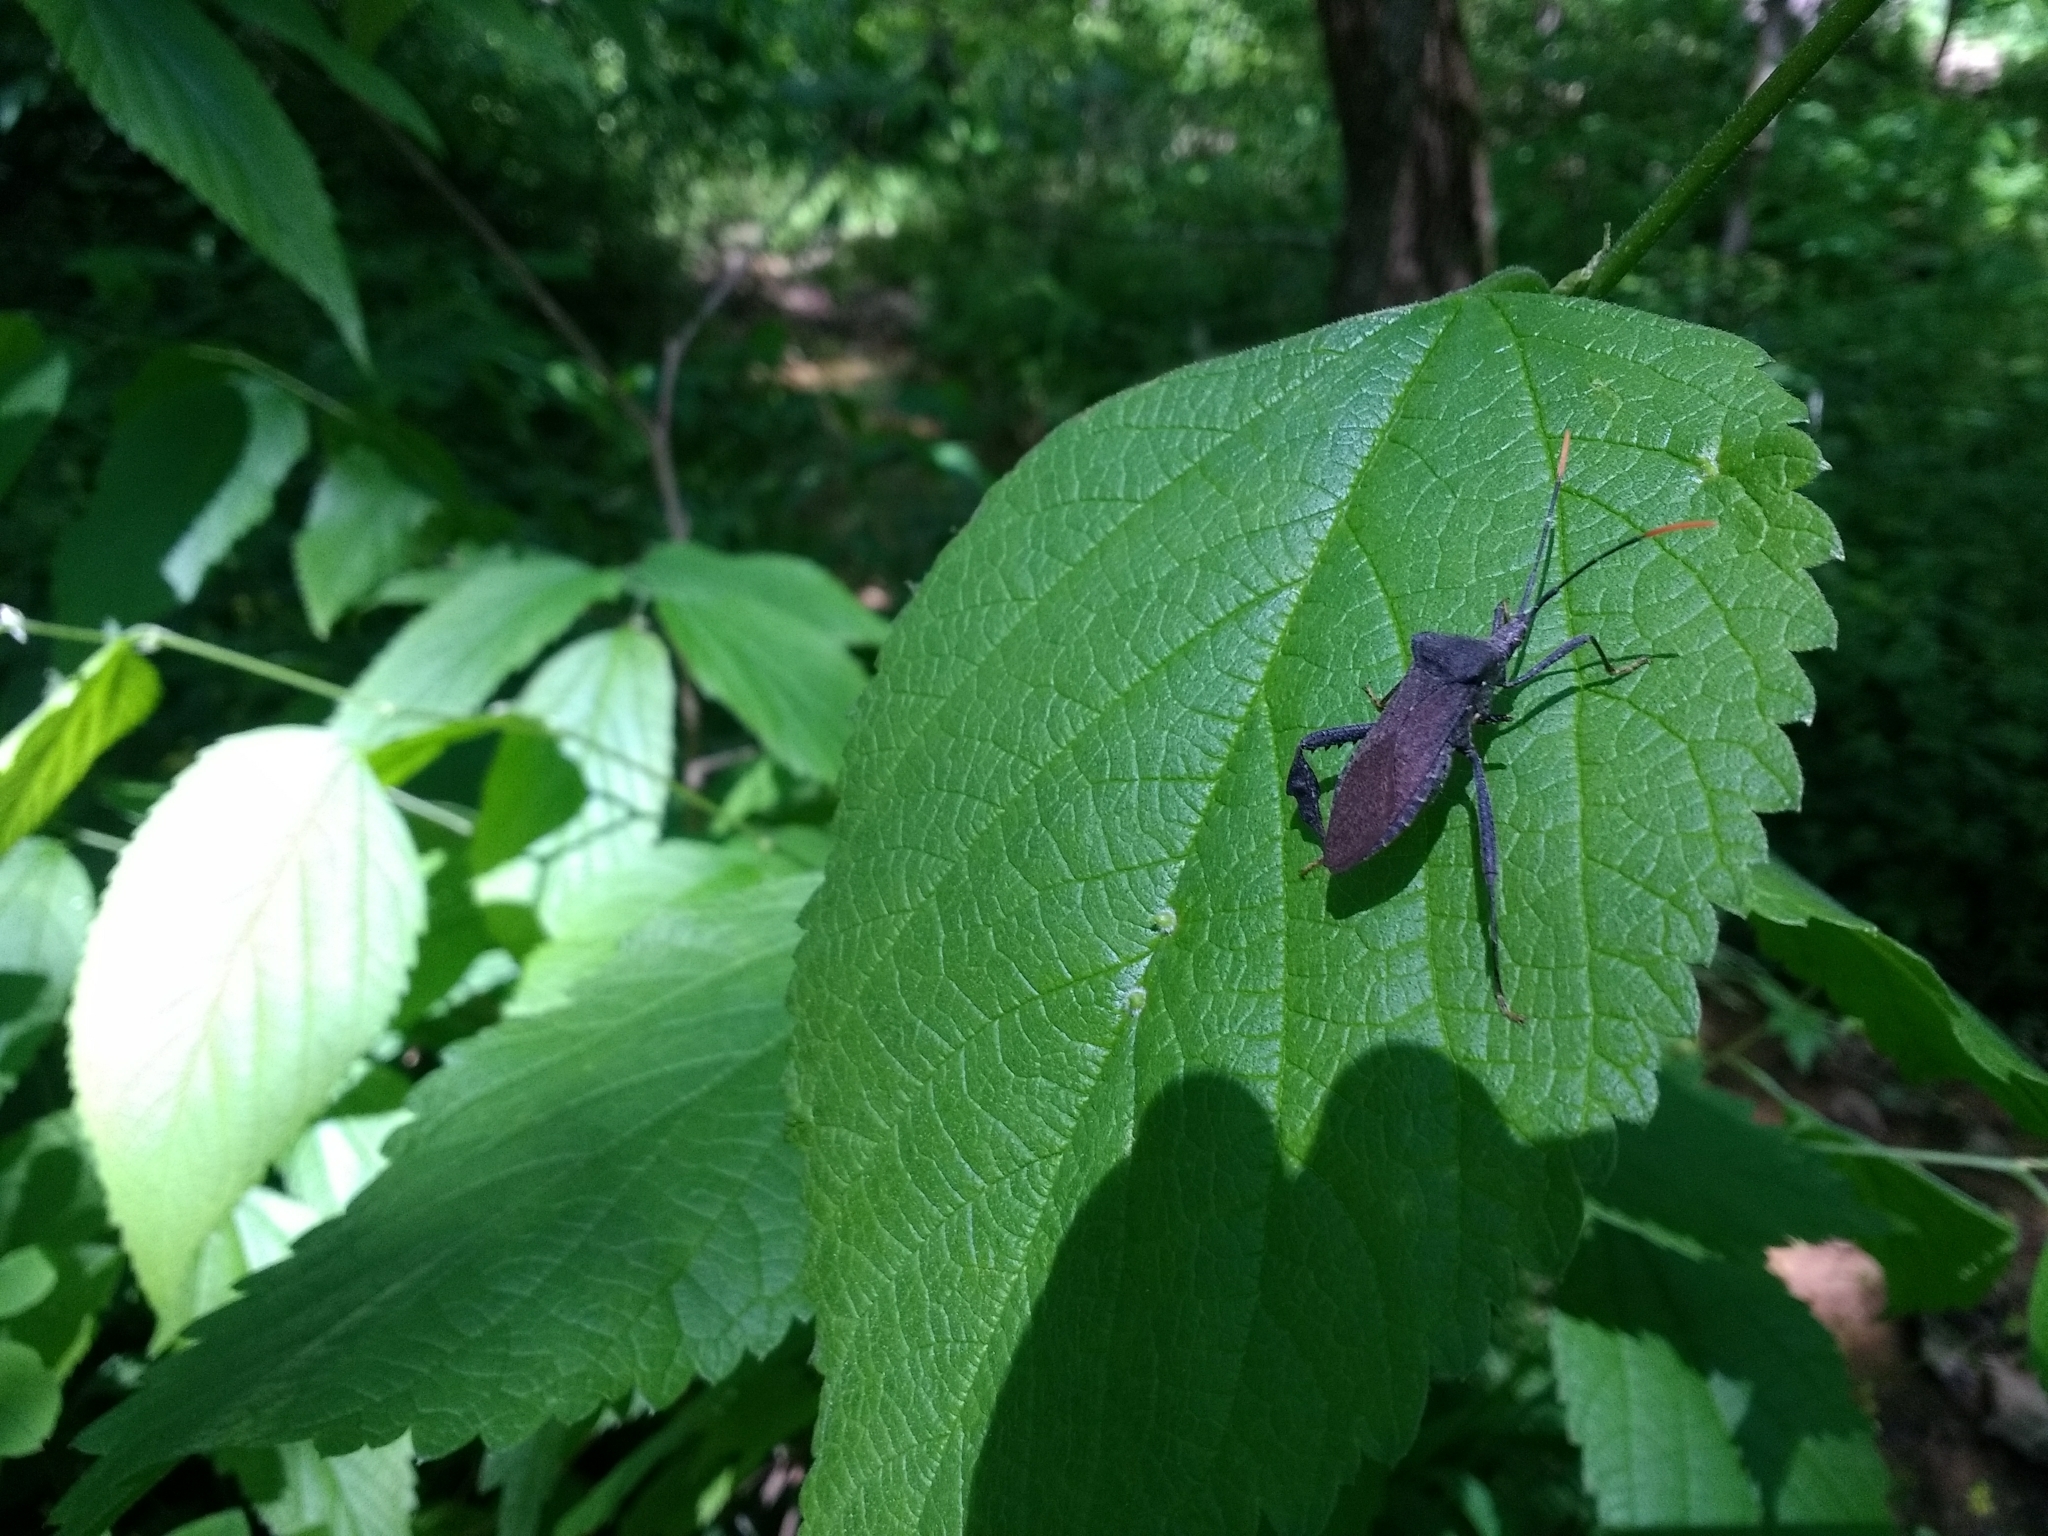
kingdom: Animalia
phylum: Arthropoda
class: Insecta
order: Hemiptera
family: Coreidae
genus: Acanthocephala
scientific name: Acanthocephala terminalis
